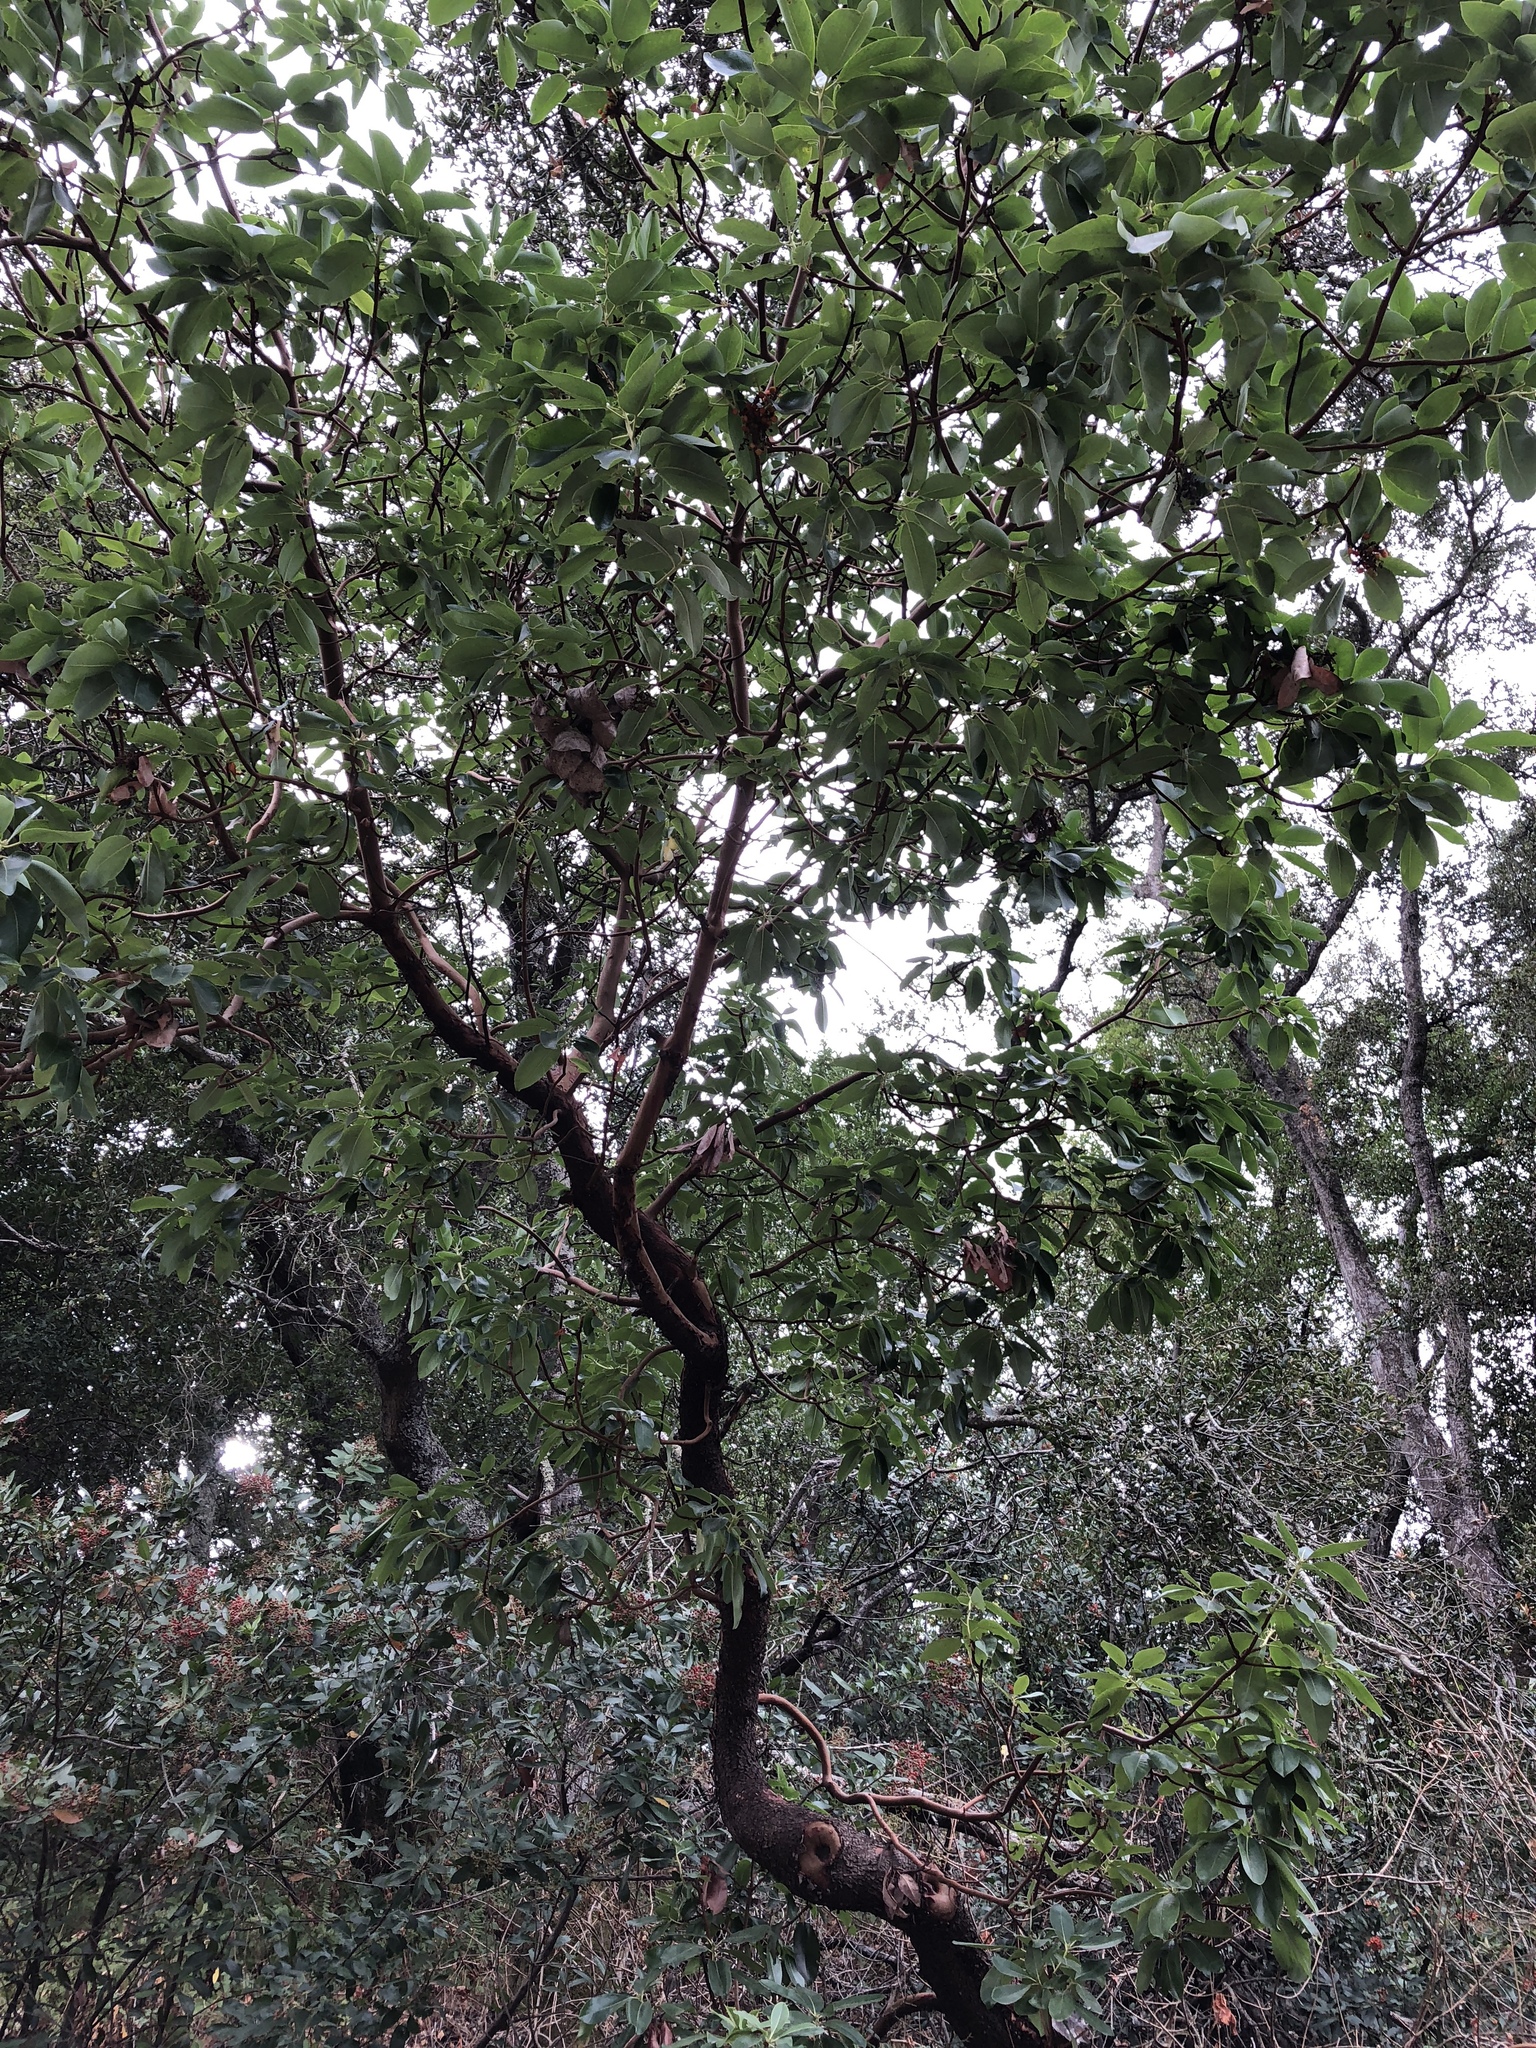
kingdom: Plantae
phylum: Tracheophyta
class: Magnoliopsida
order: Ericales
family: Ericaceae
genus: Arbutus
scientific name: Arbutus menziesii
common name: Pacific madrone
